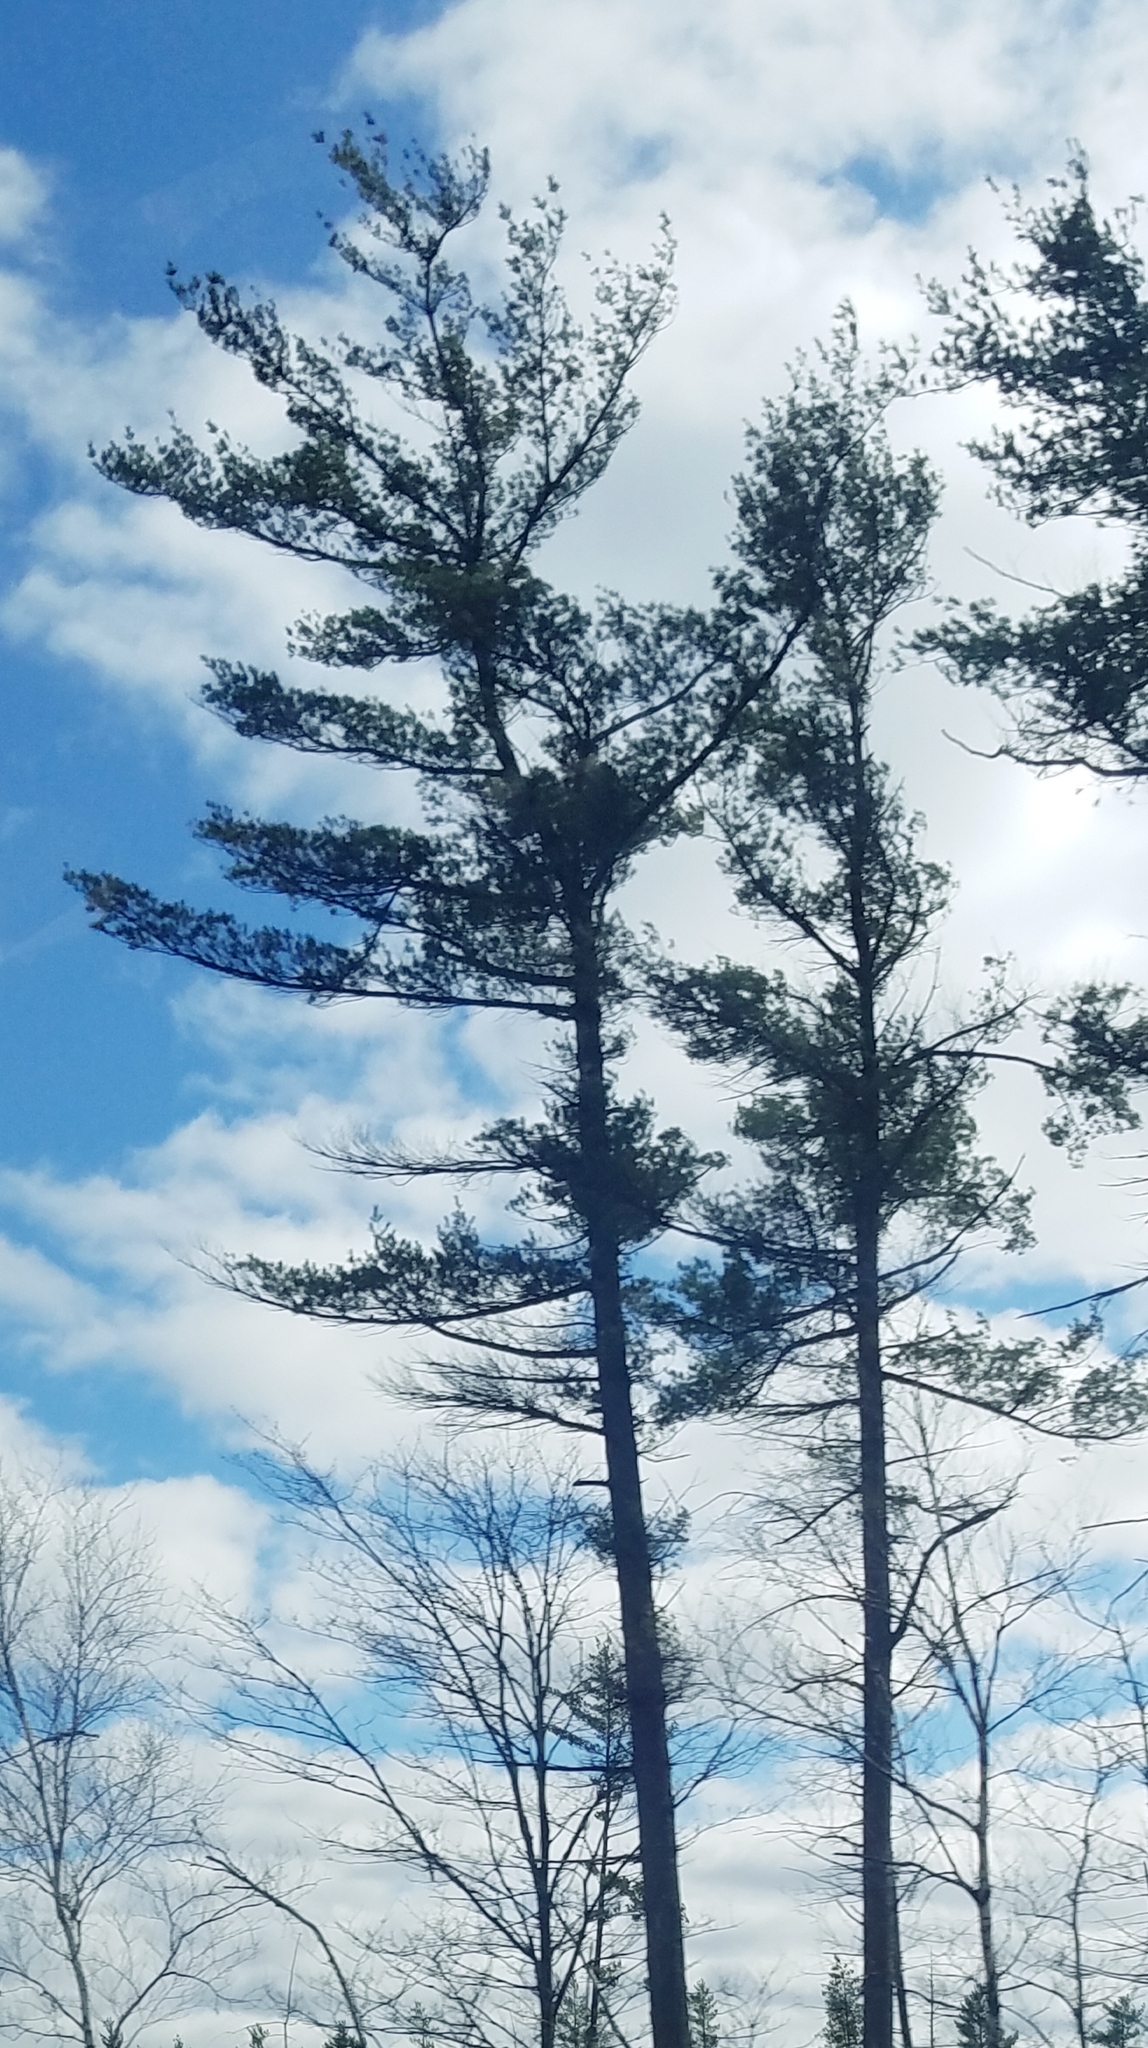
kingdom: Plantae
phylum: Tracheophyta
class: Pinopsida
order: Pinales
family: Pinaceae
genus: Pinus
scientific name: Pinus strobus
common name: Weymouth pine
